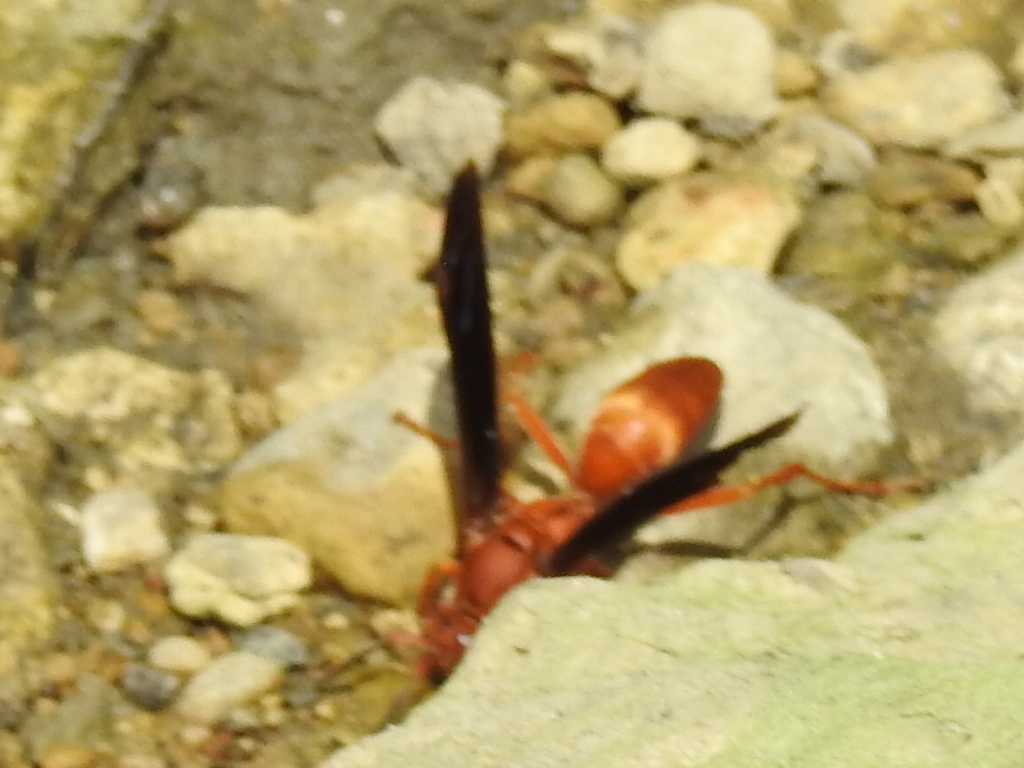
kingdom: Animalia
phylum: Arthropoda
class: Insecta
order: Hymenoptera
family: Vespidae
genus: Fuscopolistes
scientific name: Fuscopolistes
